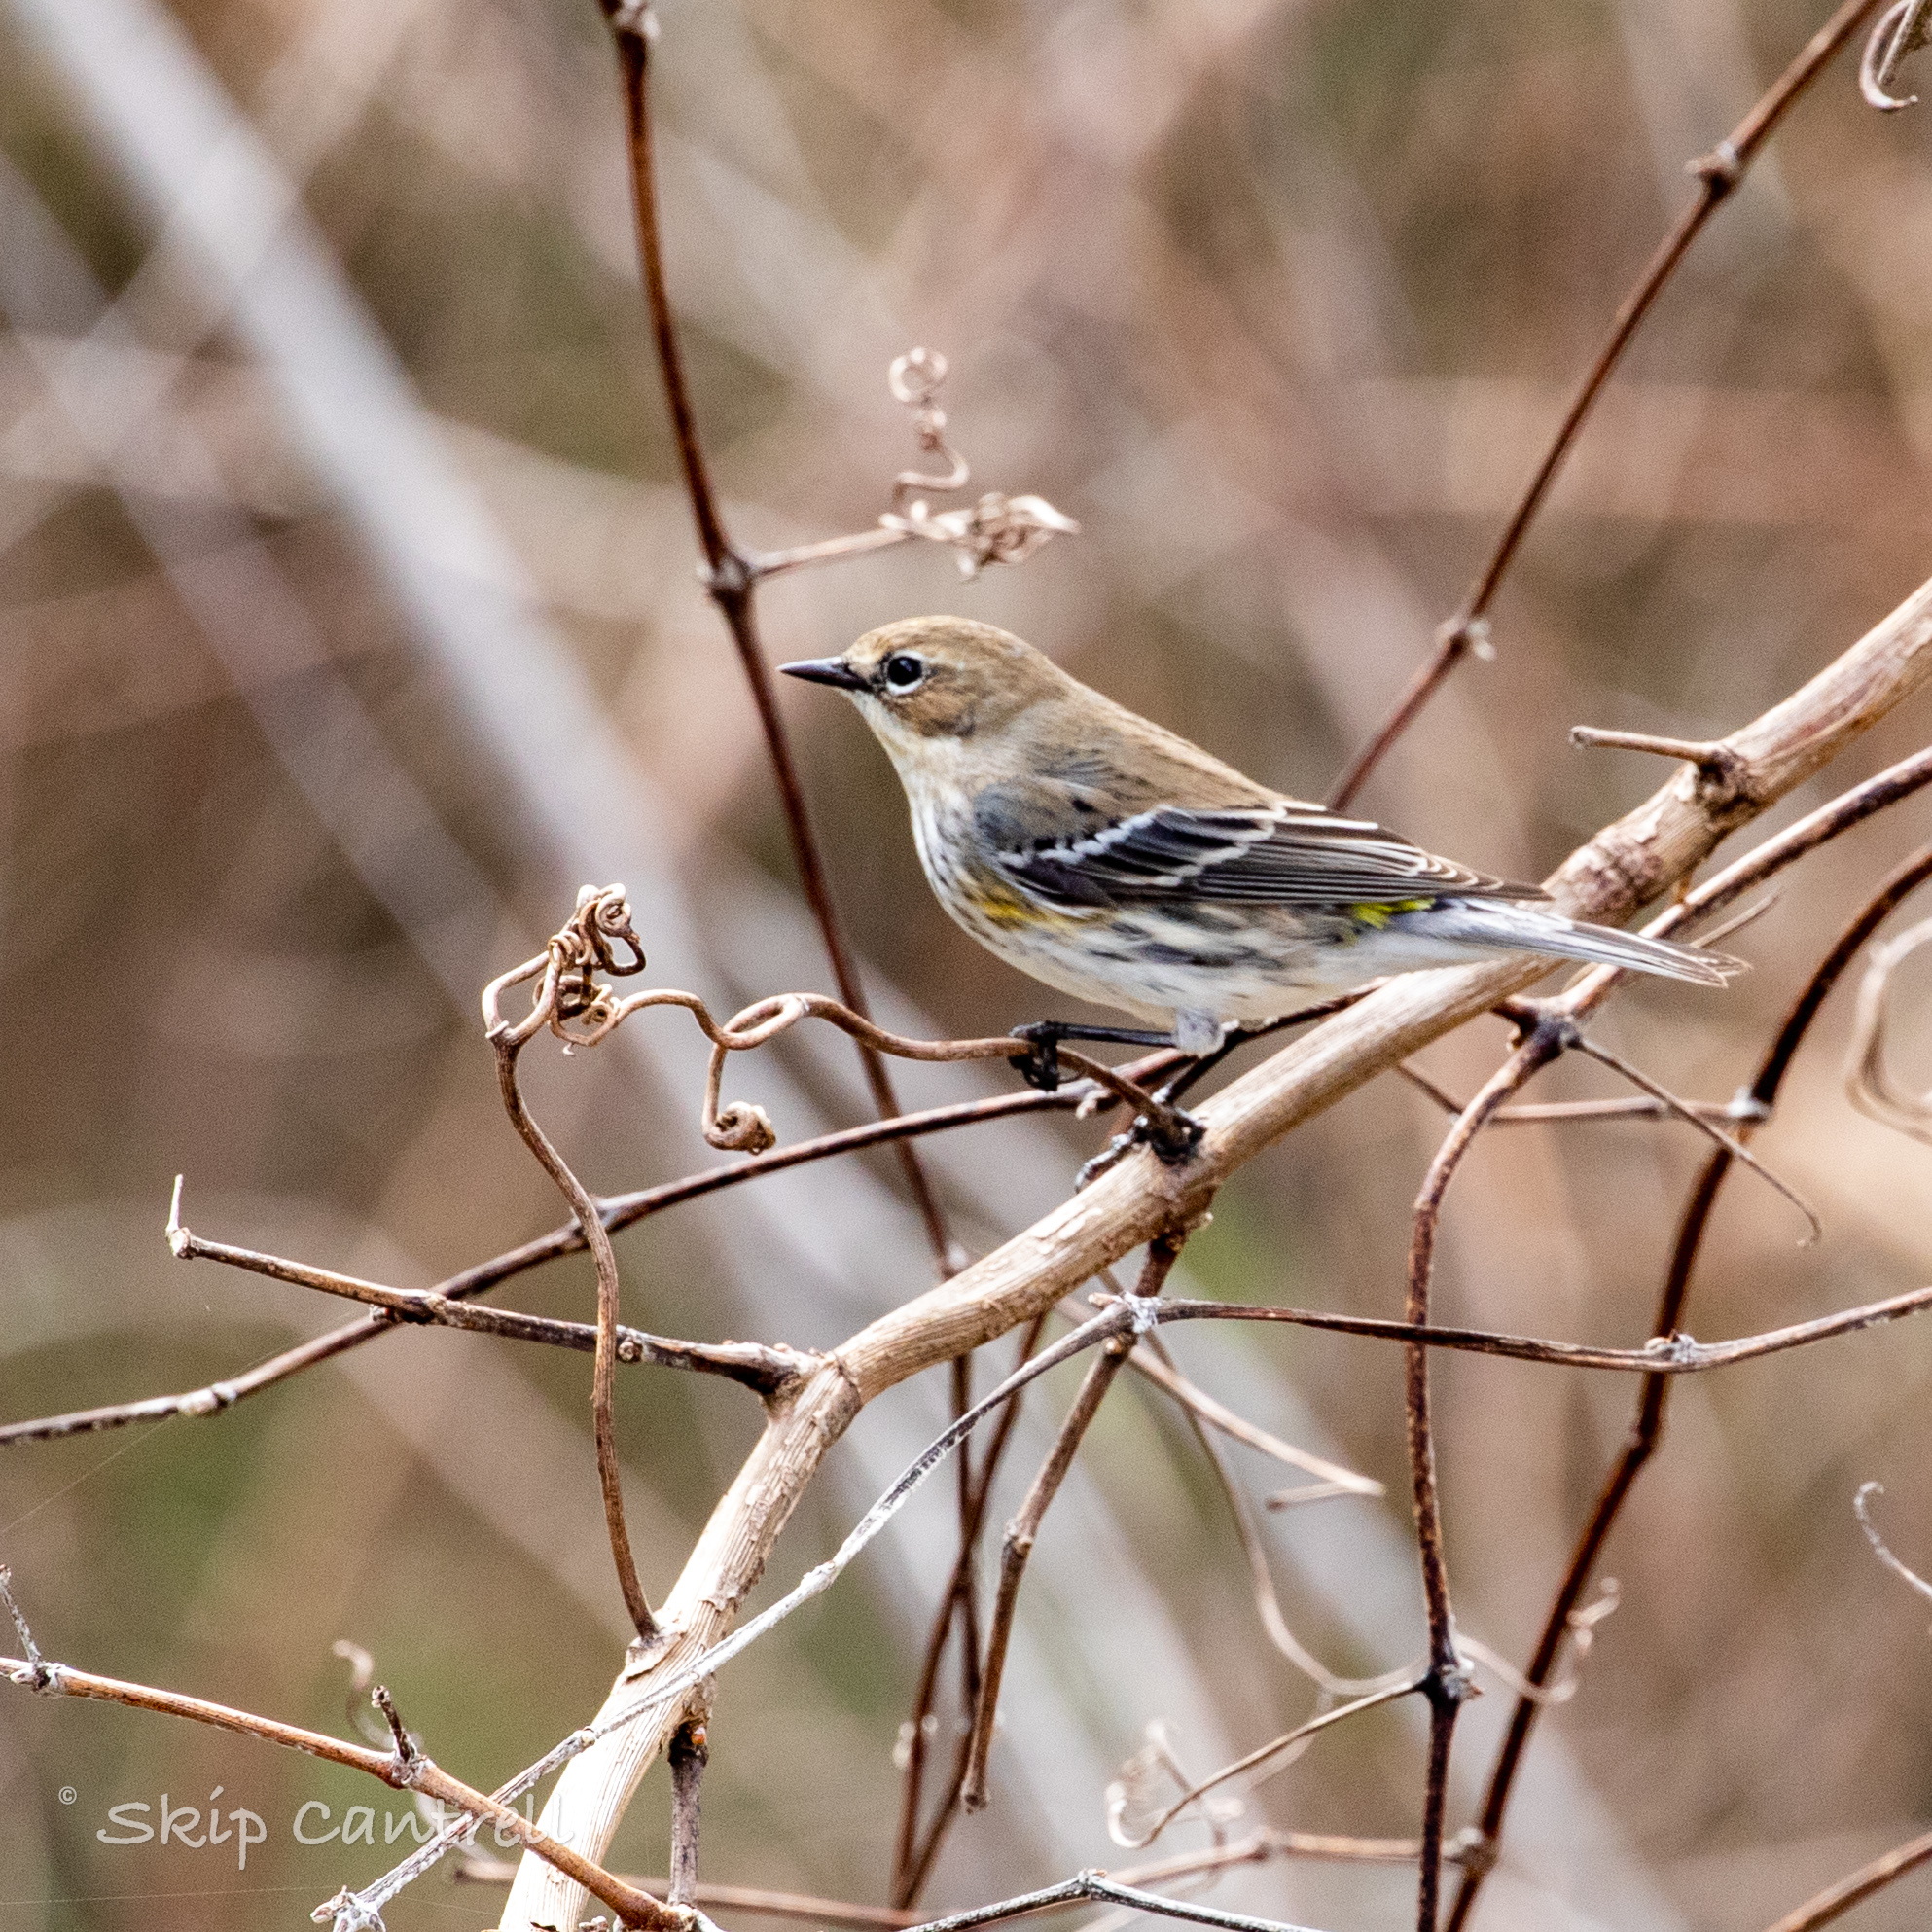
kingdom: Animalia
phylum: Chordata
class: Aves
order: Passeriformes
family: Parulidae
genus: Setophaga
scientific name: Setophaga coronata
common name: Myrtle warbler
